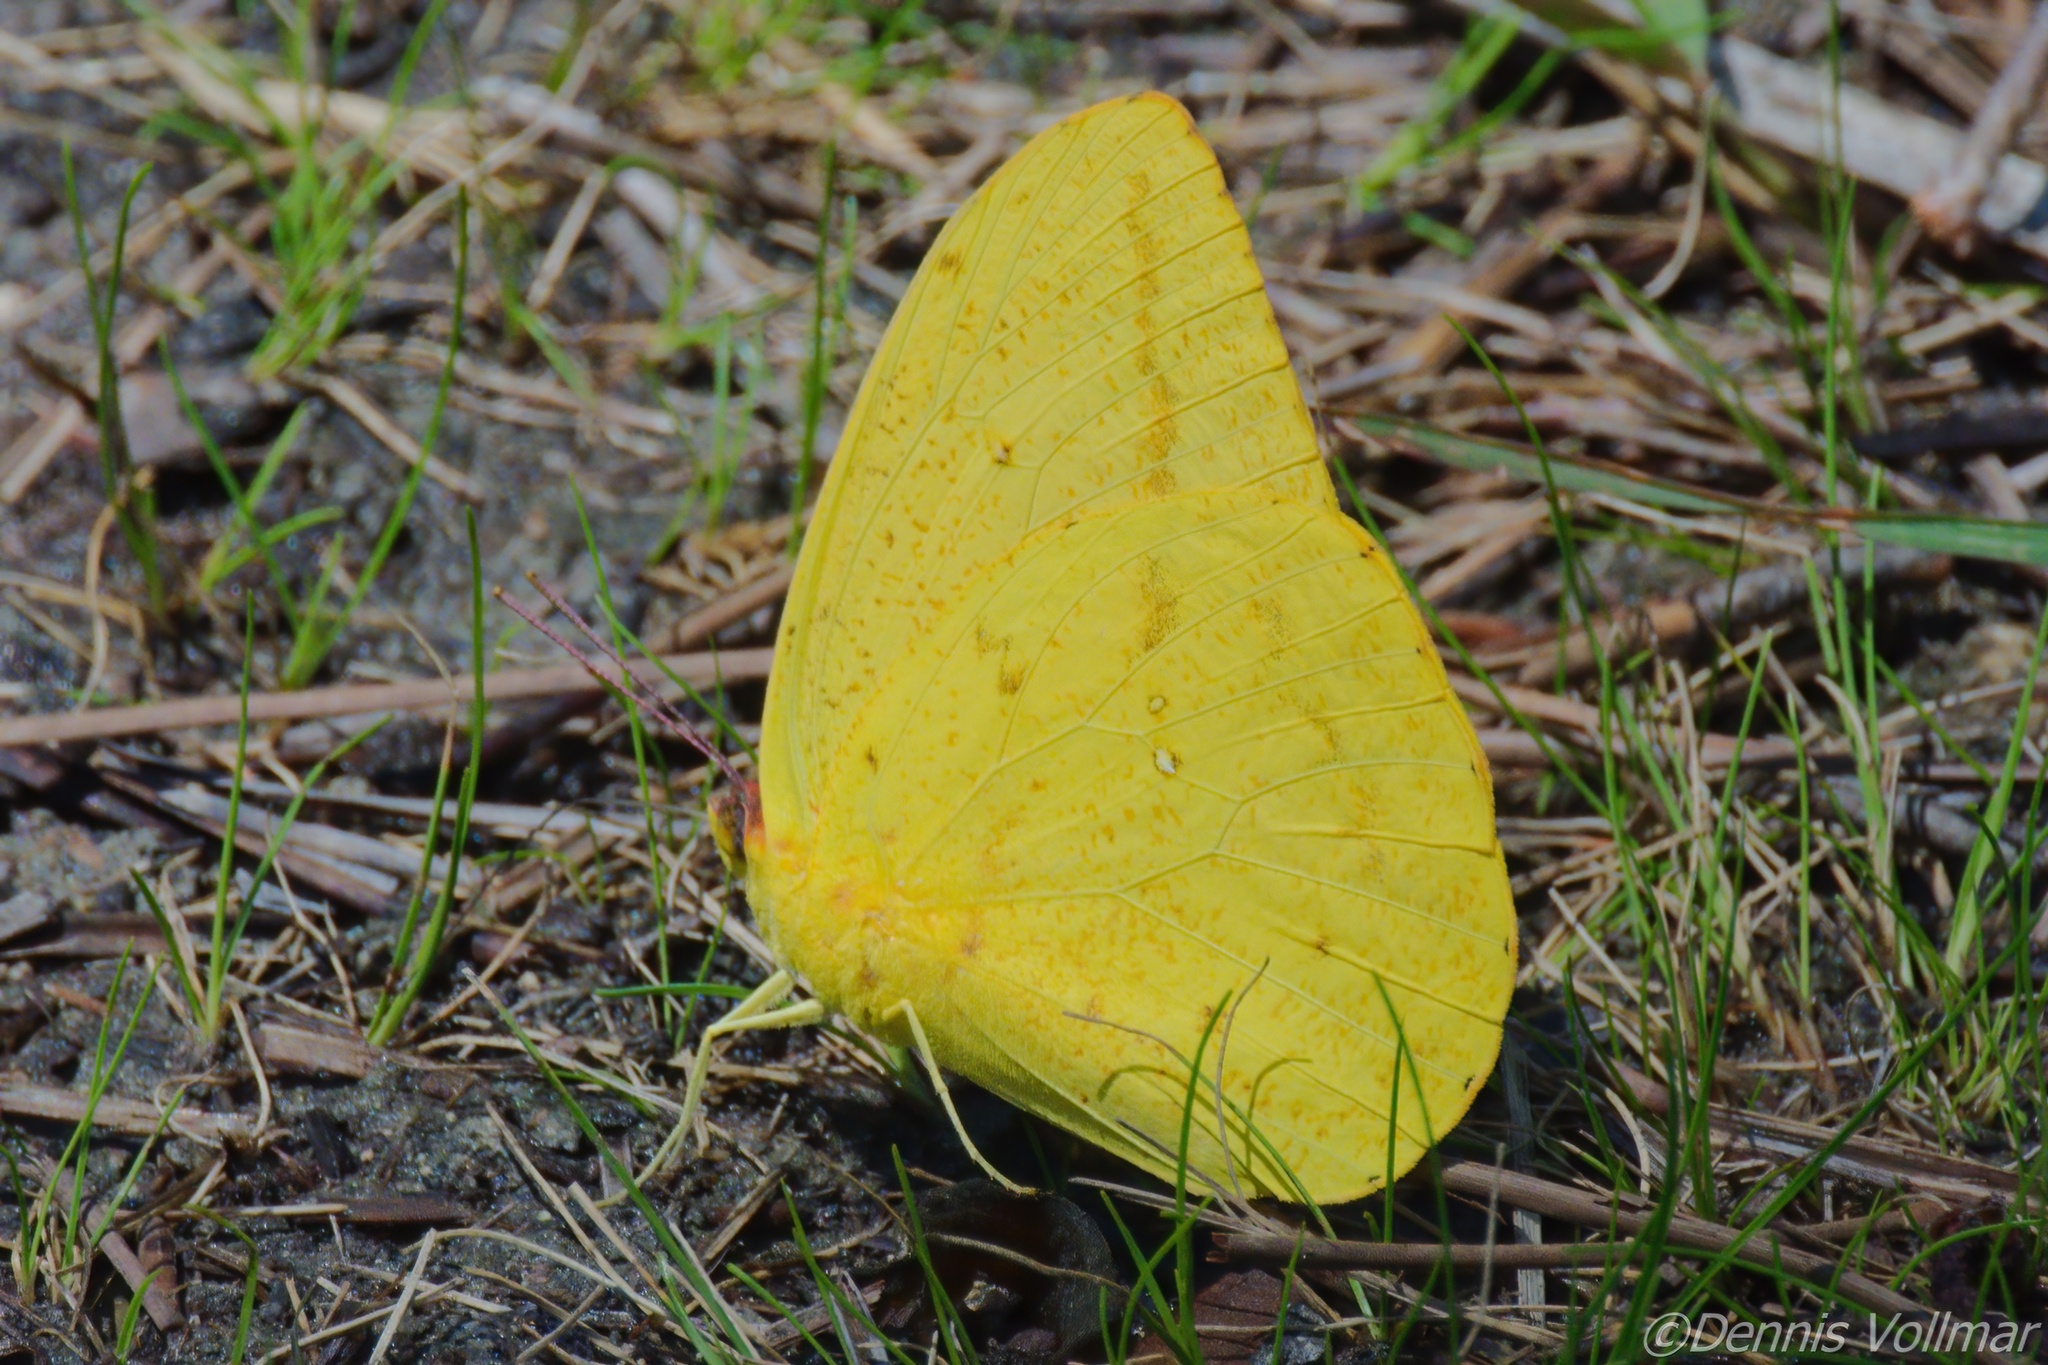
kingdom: Animalia
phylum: Arthropoda
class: Insecta
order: Lepidoptera
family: Pieridae
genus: Phoebis
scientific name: Phoebis agarithe
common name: Large orange sulphur
